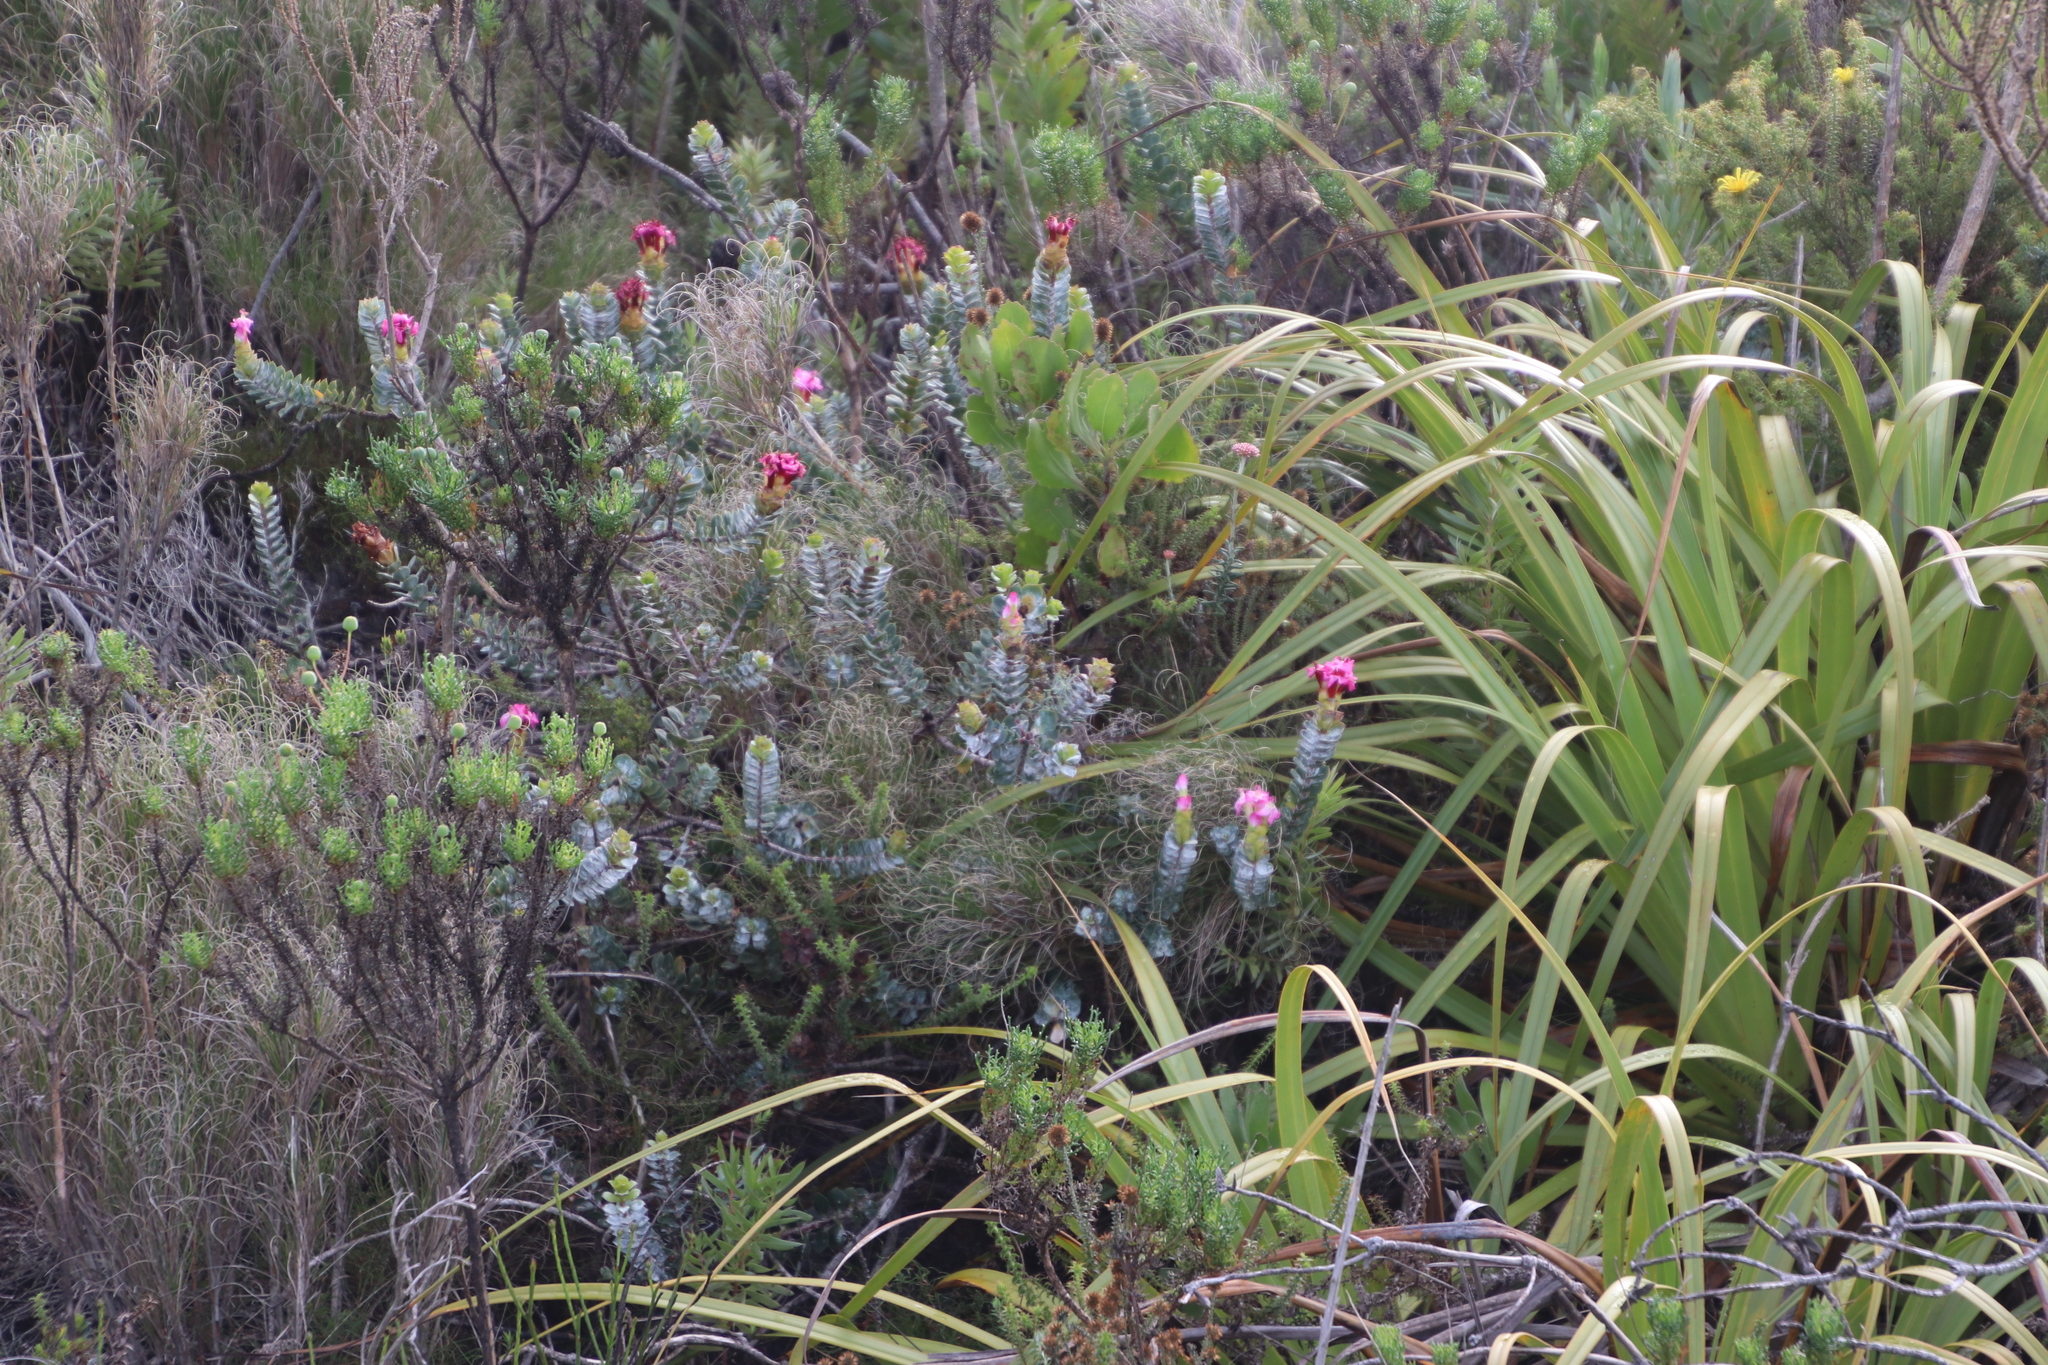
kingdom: Plantae
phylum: Tracheophyta
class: Magnoliopsida
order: Myrtales
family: Penaeaceae
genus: Saltera
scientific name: Saltera sarcocolla
